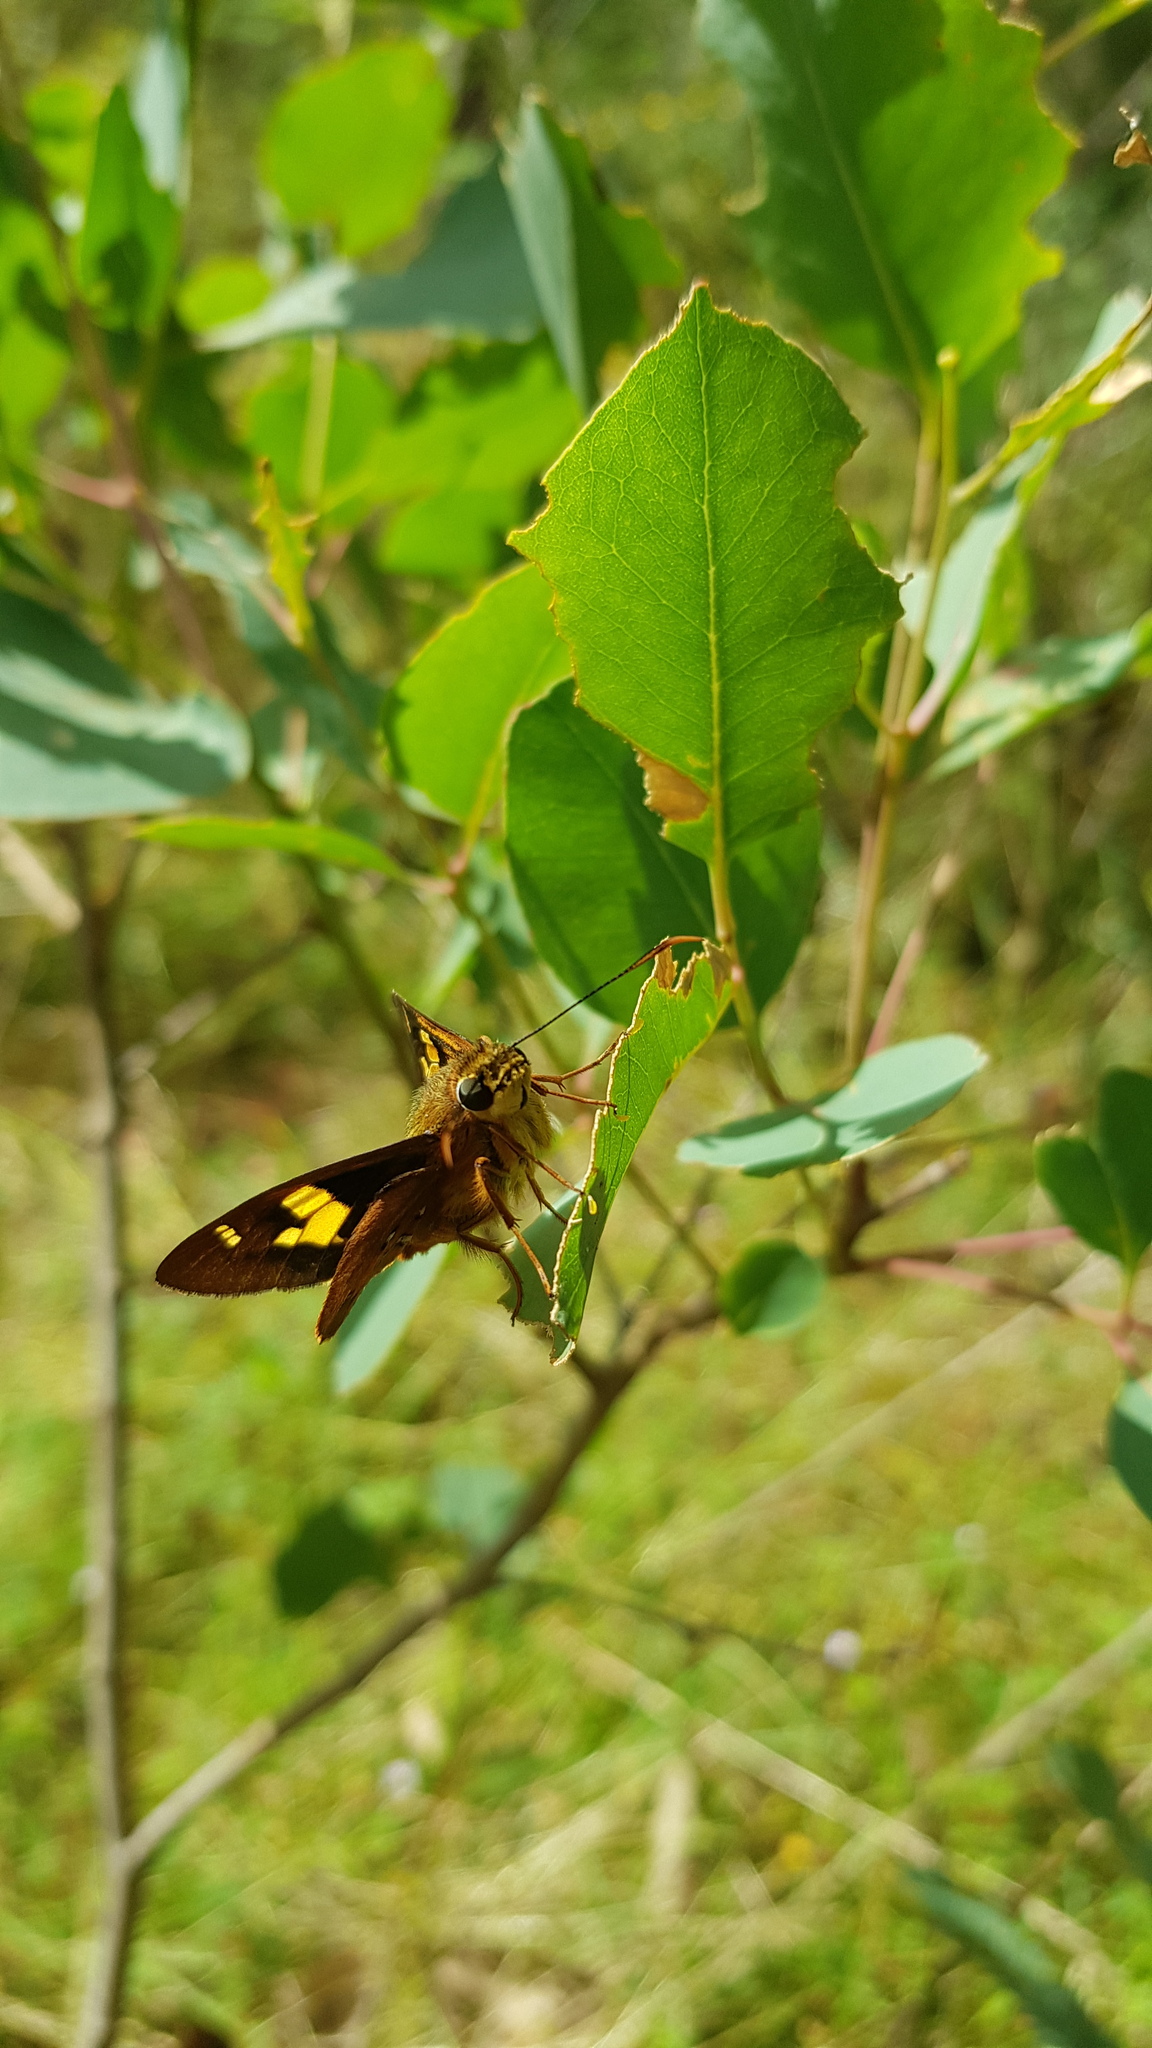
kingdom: Animalia
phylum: Arthropoda
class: Insecta
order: Lepidoptera
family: Hesperiidae
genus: Trapezites
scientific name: Trapezites symmomus
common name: Splendid ochre
